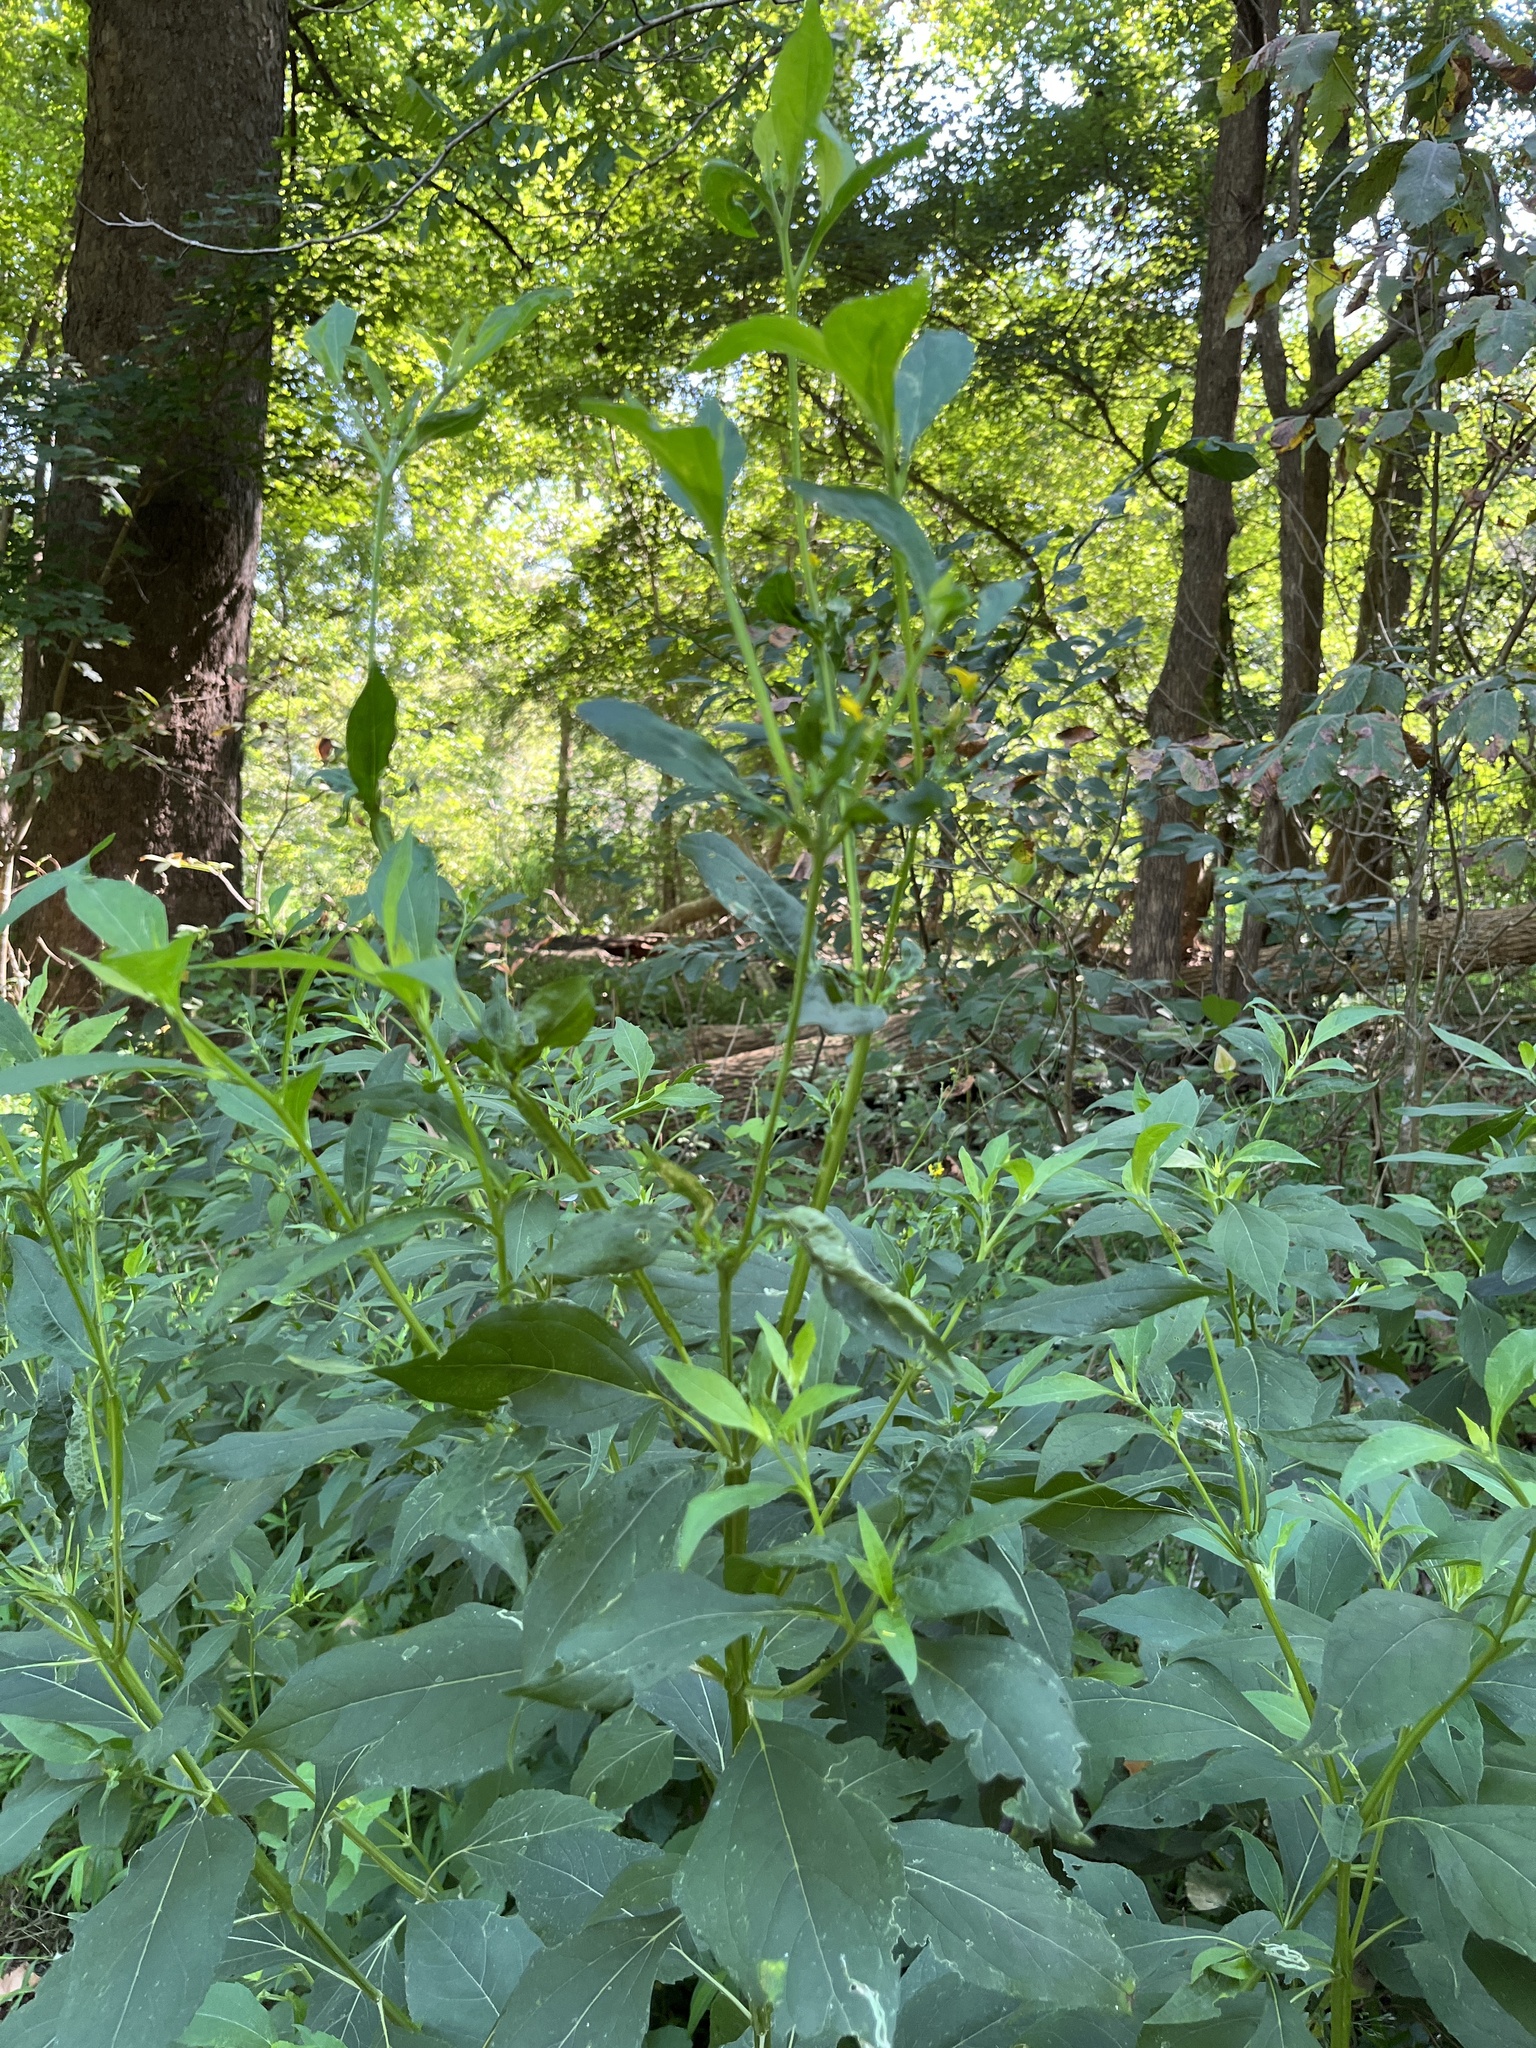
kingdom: Plantae
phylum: Tracheophyta
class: Magnoliopsida
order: Asterales
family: Asteraceae
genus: Verbesina
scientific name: Verbesina occidentalis
